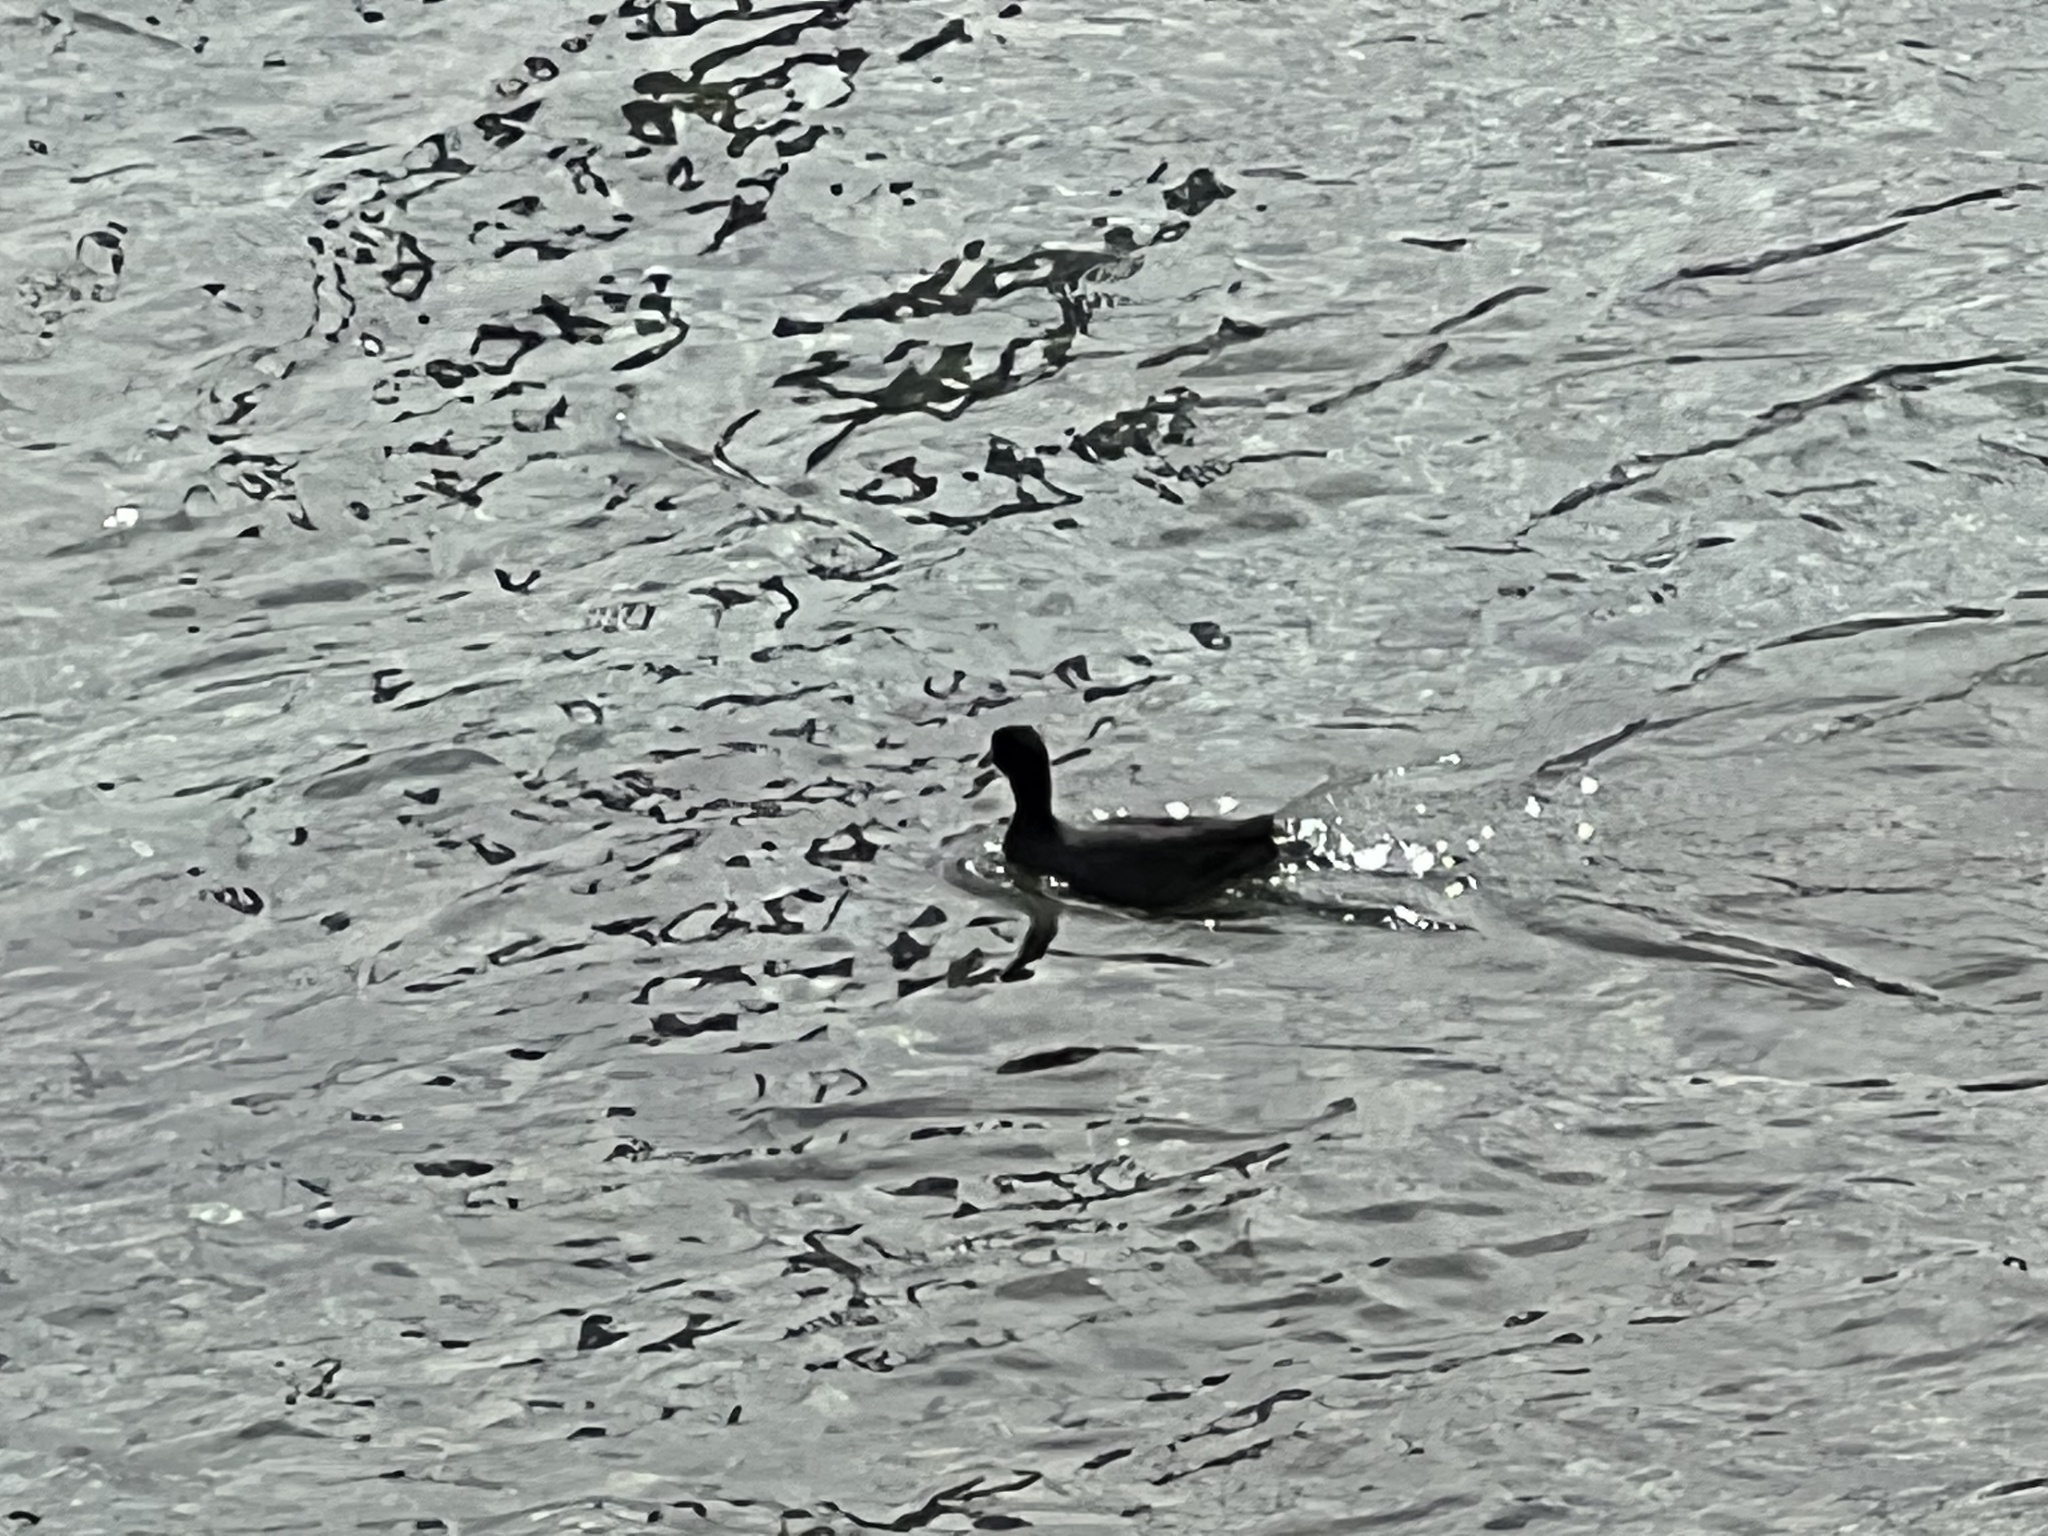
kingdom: Animalia
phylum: Chordata
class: Aves
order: Gruiformes
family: Rallidae
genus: Fulica
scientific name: Fulica americana
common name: American coot
